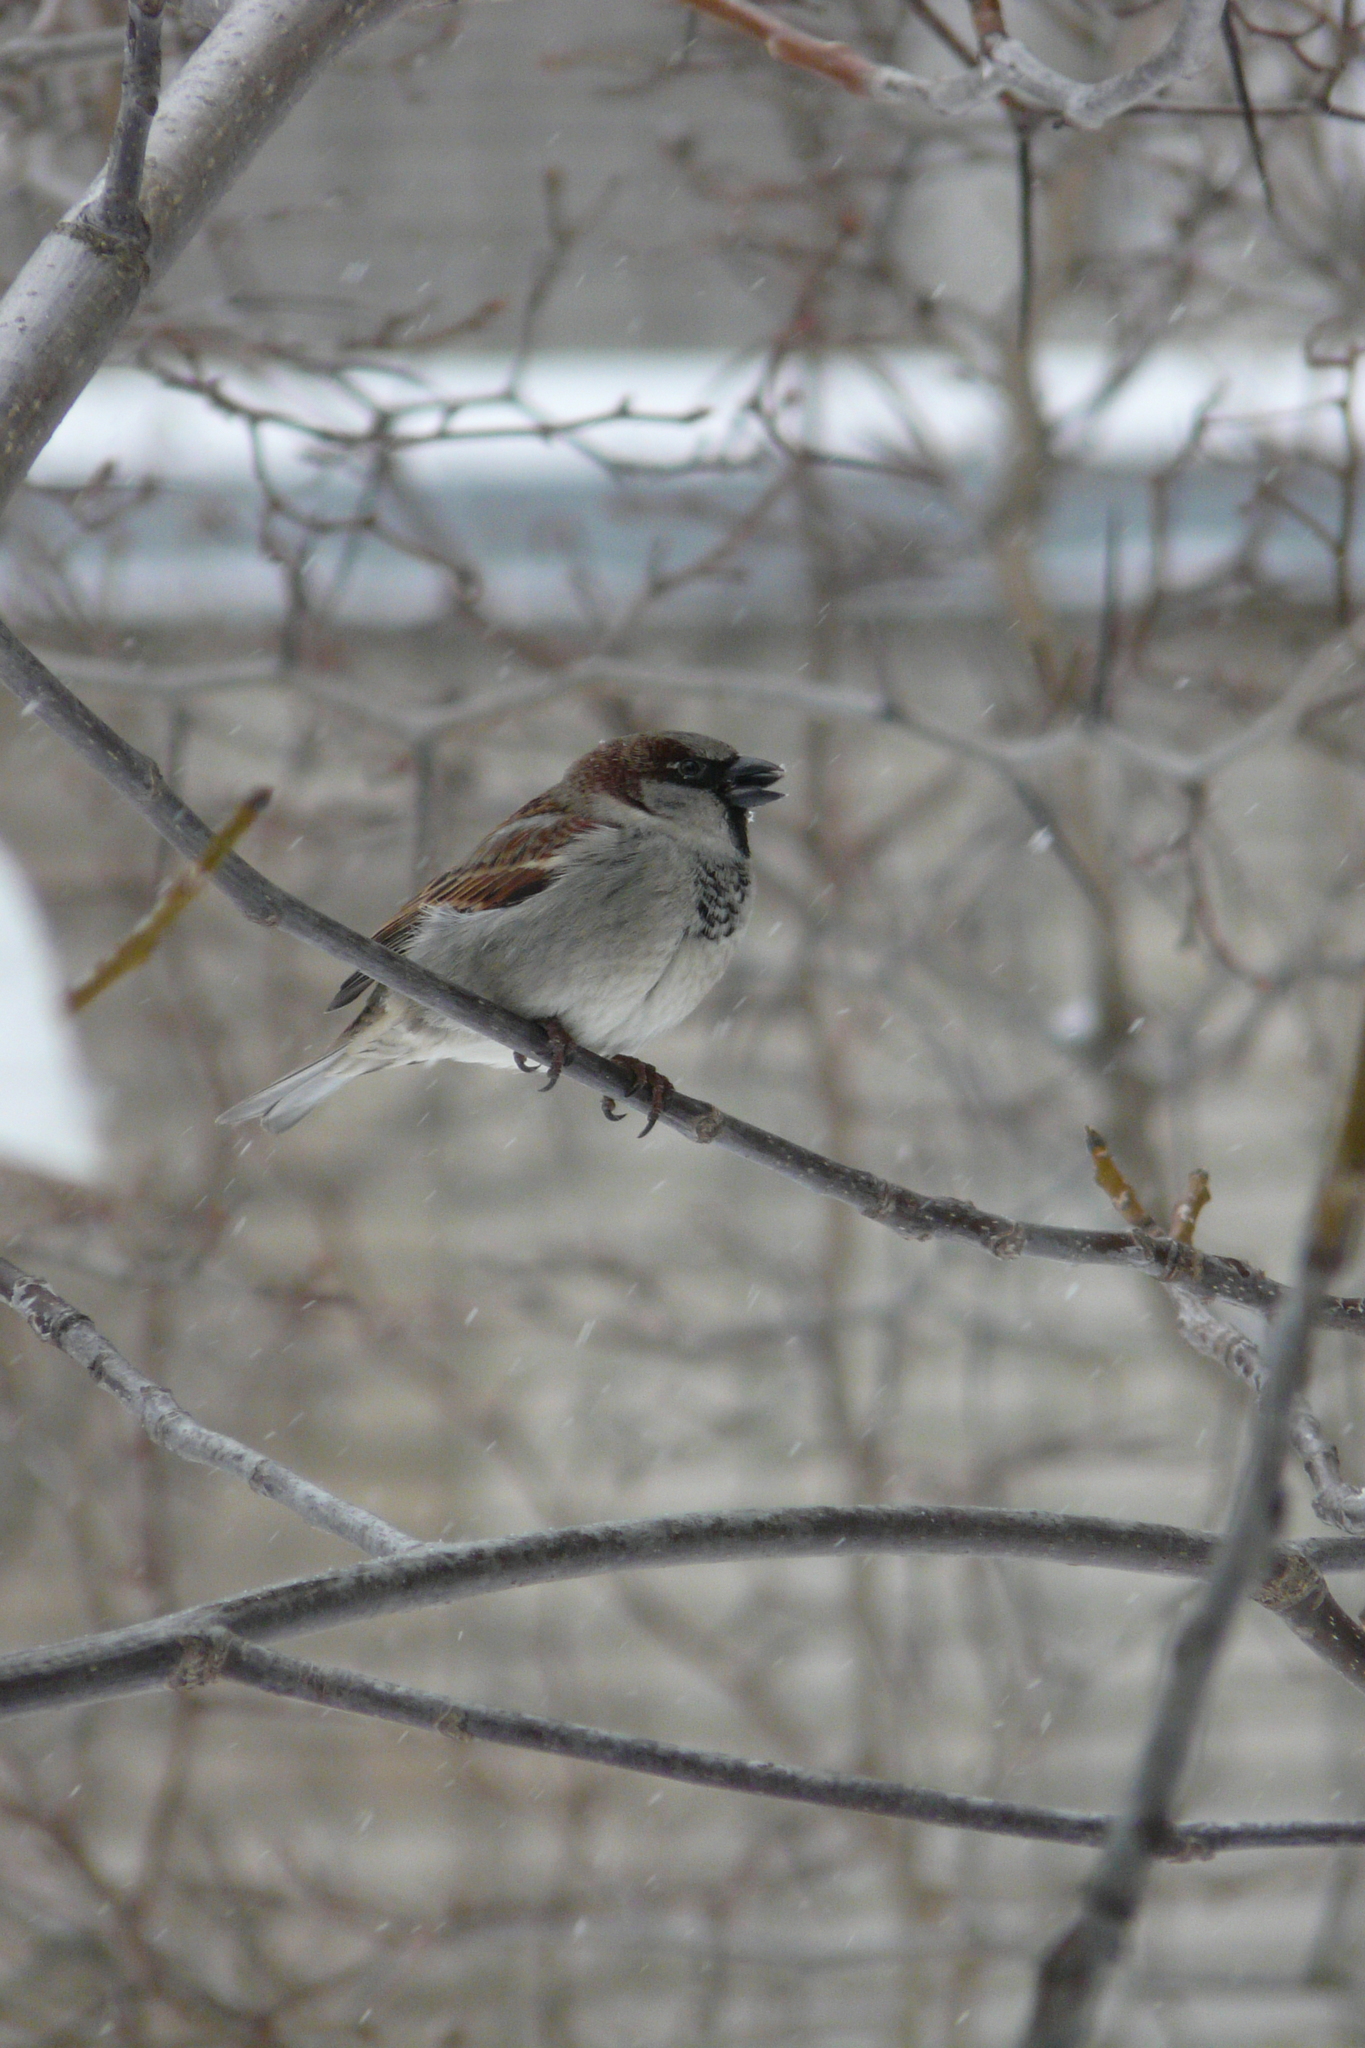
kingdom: Animalia
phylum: Chordata
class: Aves
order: Passeriformes
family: Passeridae
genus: Passer
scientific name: Passer domesticus
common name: House sparrow
